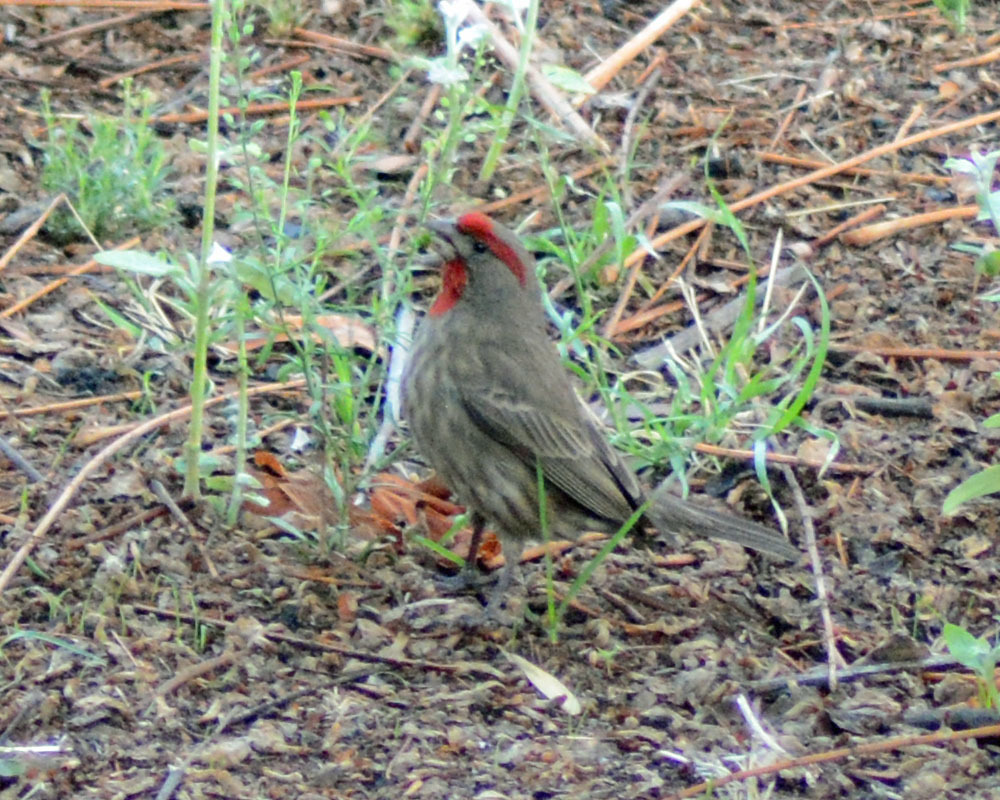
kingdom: Animalia
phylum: Chordata
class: Aves
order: Passeriformes
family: Fringillidae
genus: Haemorhous
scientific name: Haemorhous mexicanus
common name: House finch
